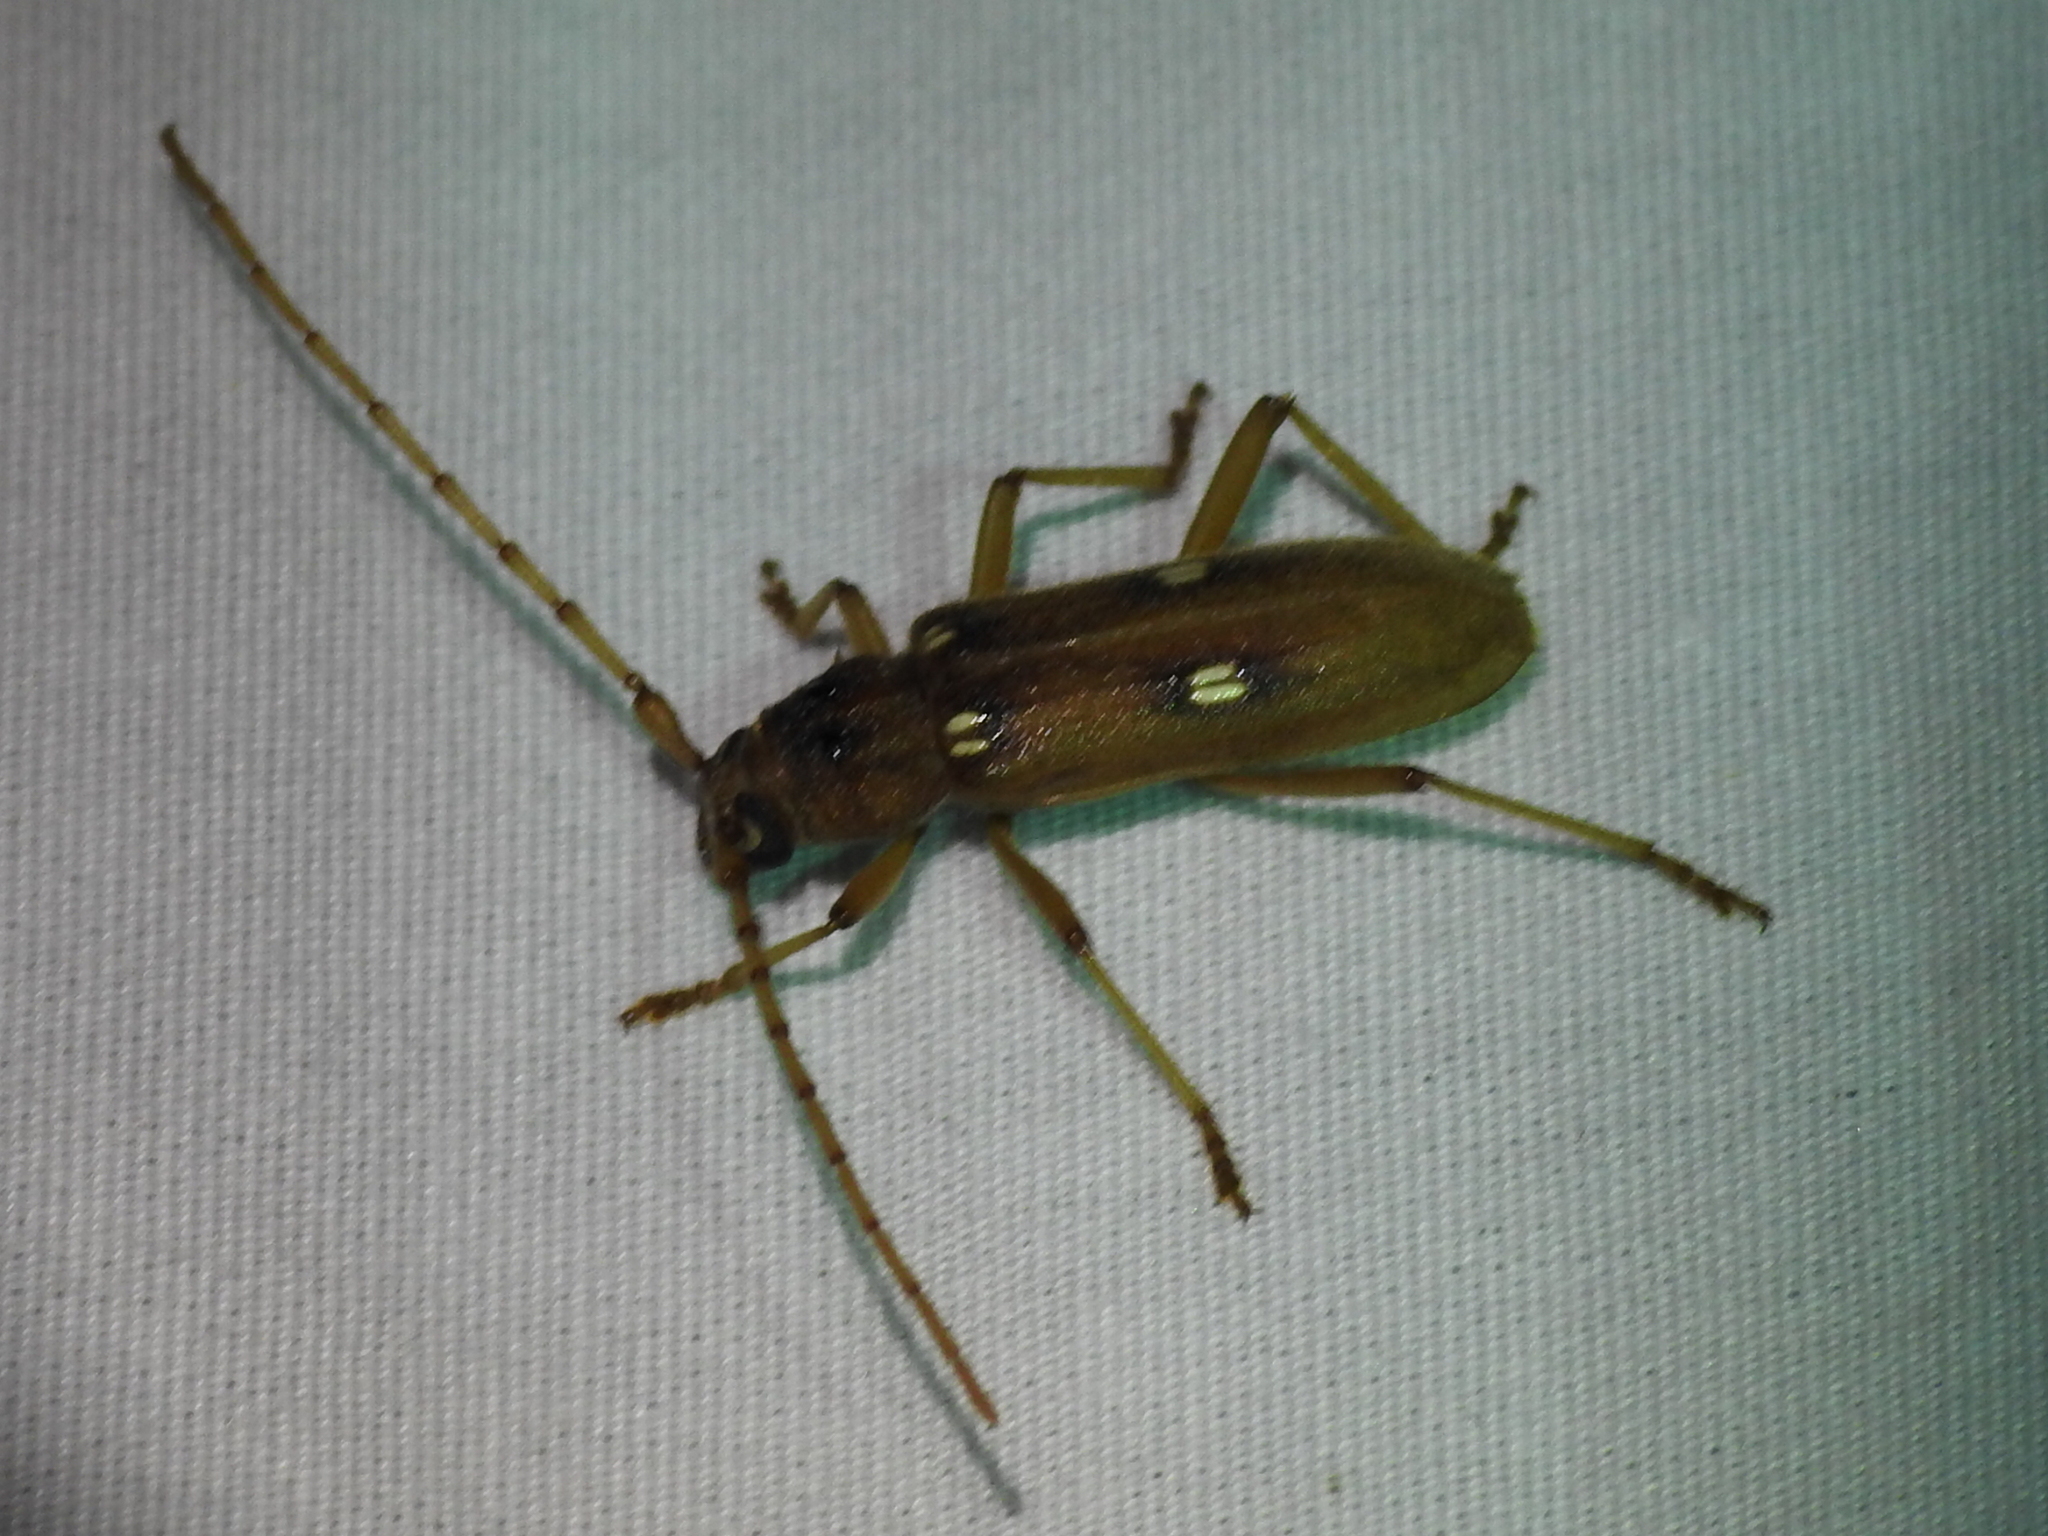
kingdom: Animalia
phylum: Arthropoda
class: Insecta
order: Coleoptera
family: Cerambycidae
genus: Eburia
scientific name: Eburia haldemani
